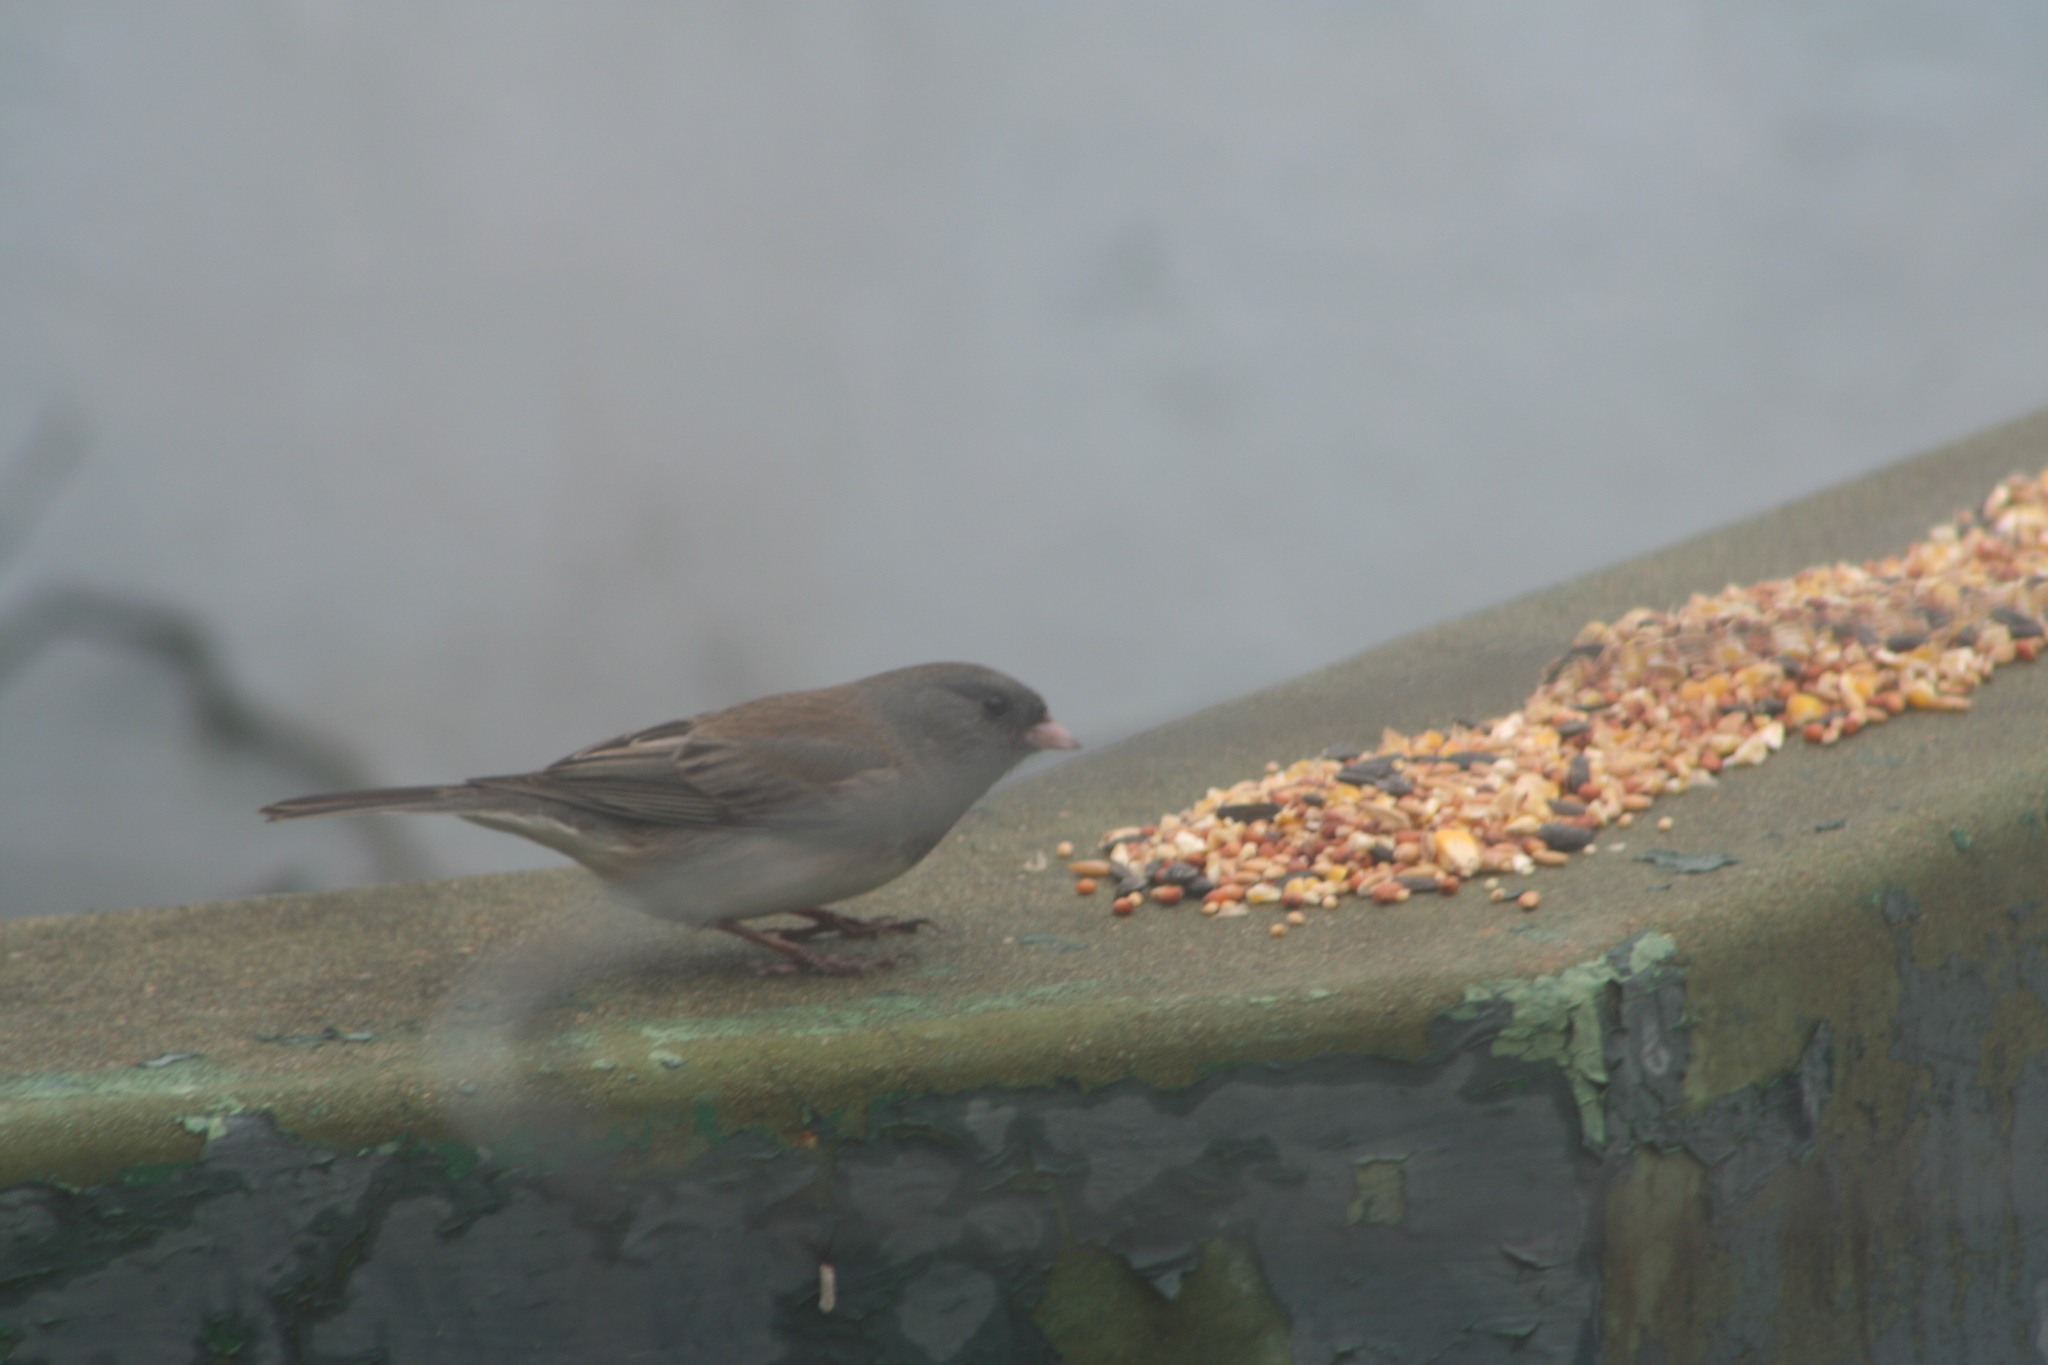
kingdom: Animalia
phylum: Chordata
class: Aves
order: Passeriformes
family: Passerellidae
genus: Junco
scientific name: Junco hyemalis
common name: Dark-eyed junco
